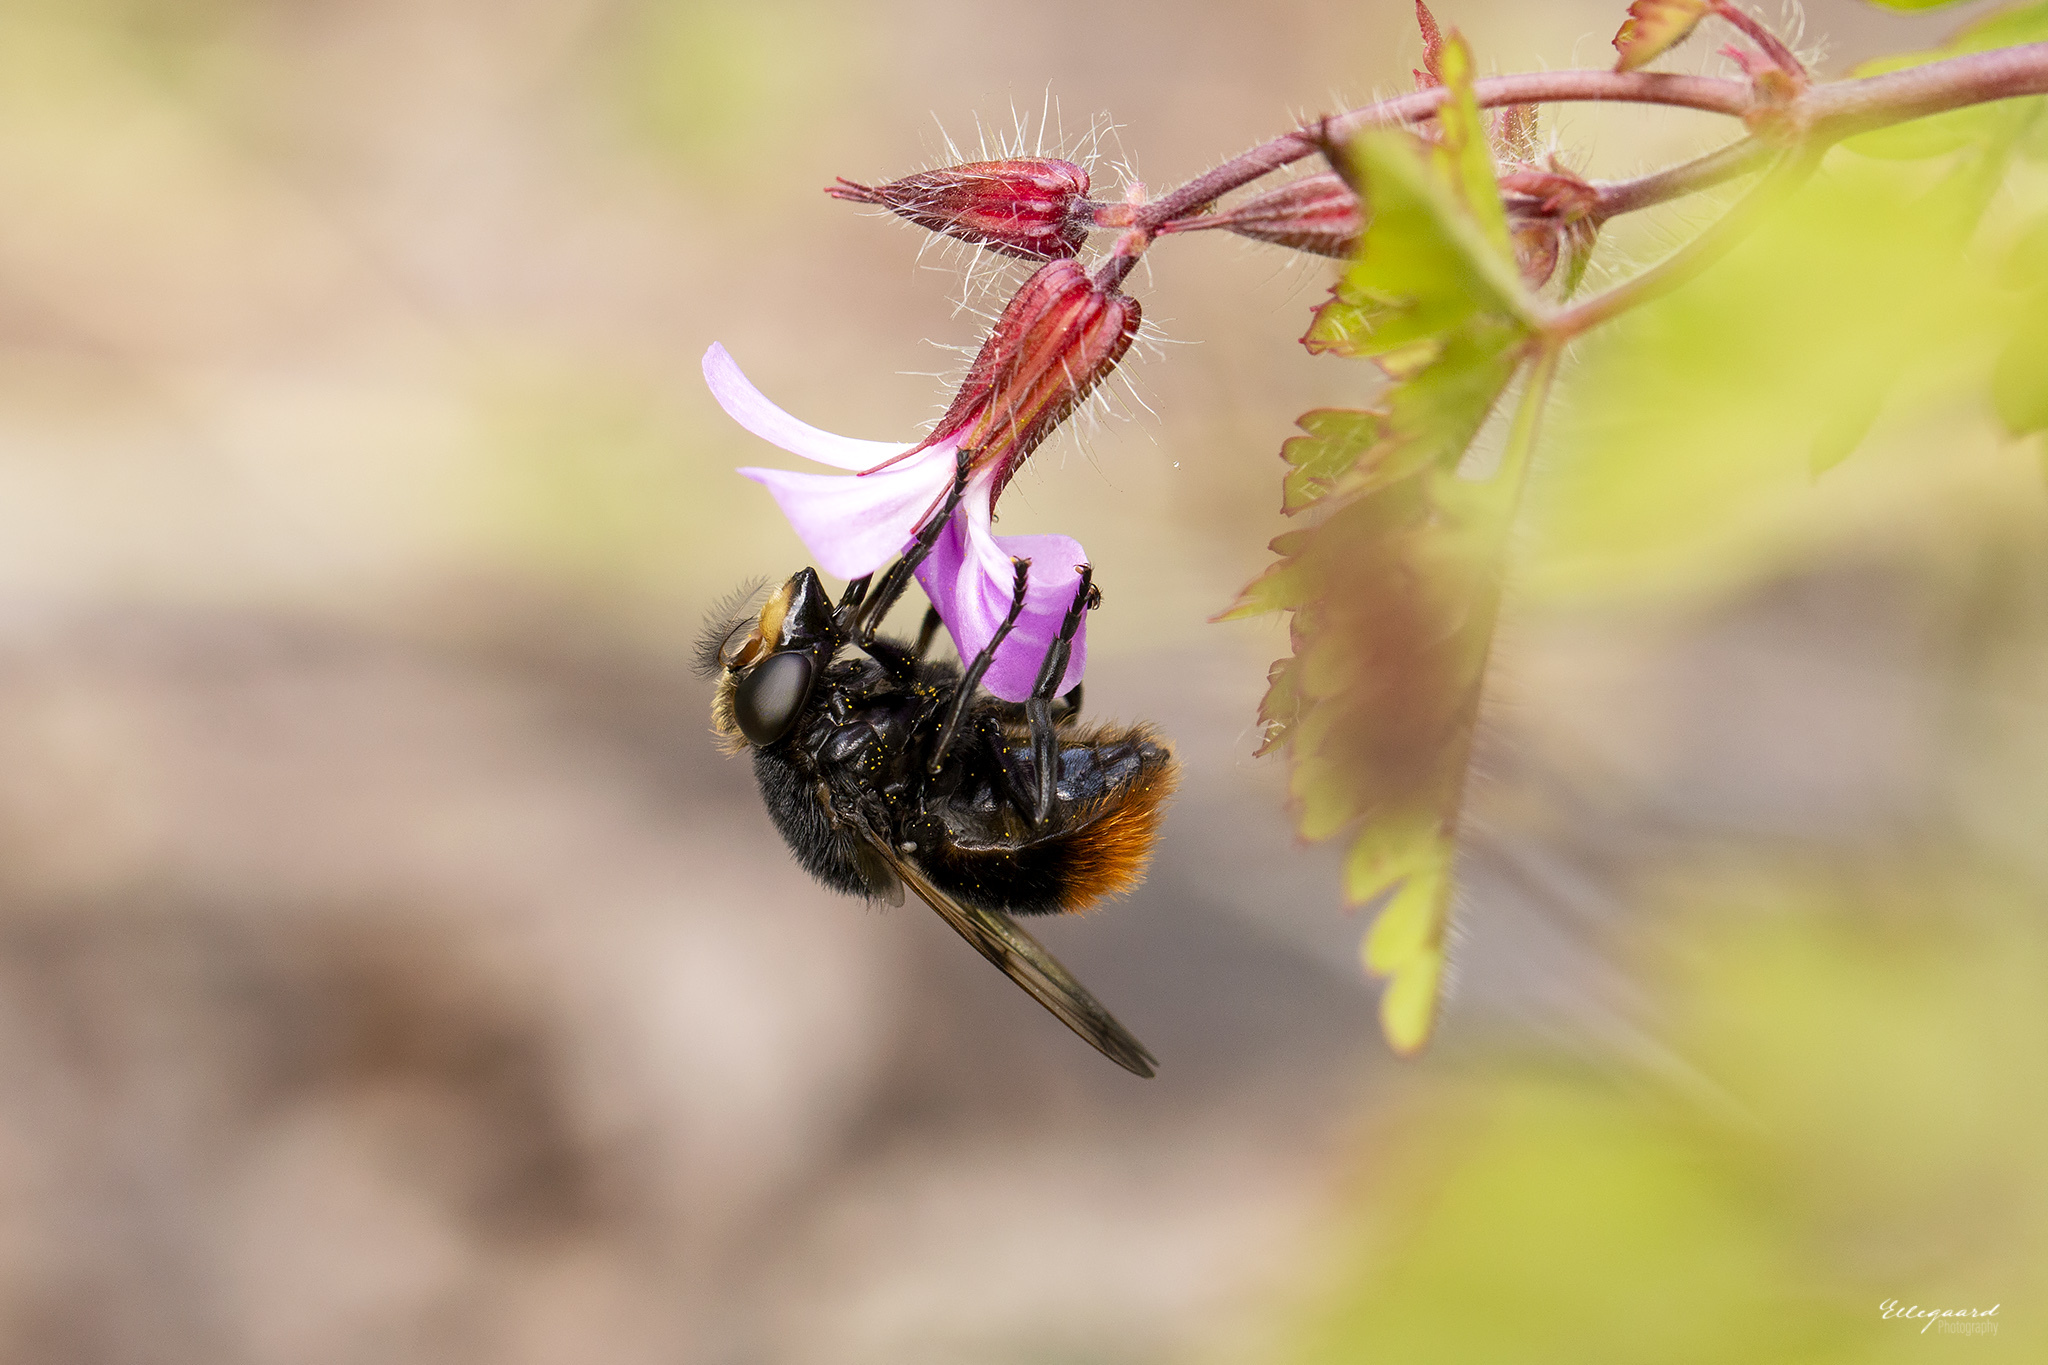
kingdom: Animalia
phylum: Arthropoda
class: Insecta
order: Diptera
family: Syrphidae
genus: Volucella
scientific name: Volucella bombylans
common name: Bumble bee hover fly
